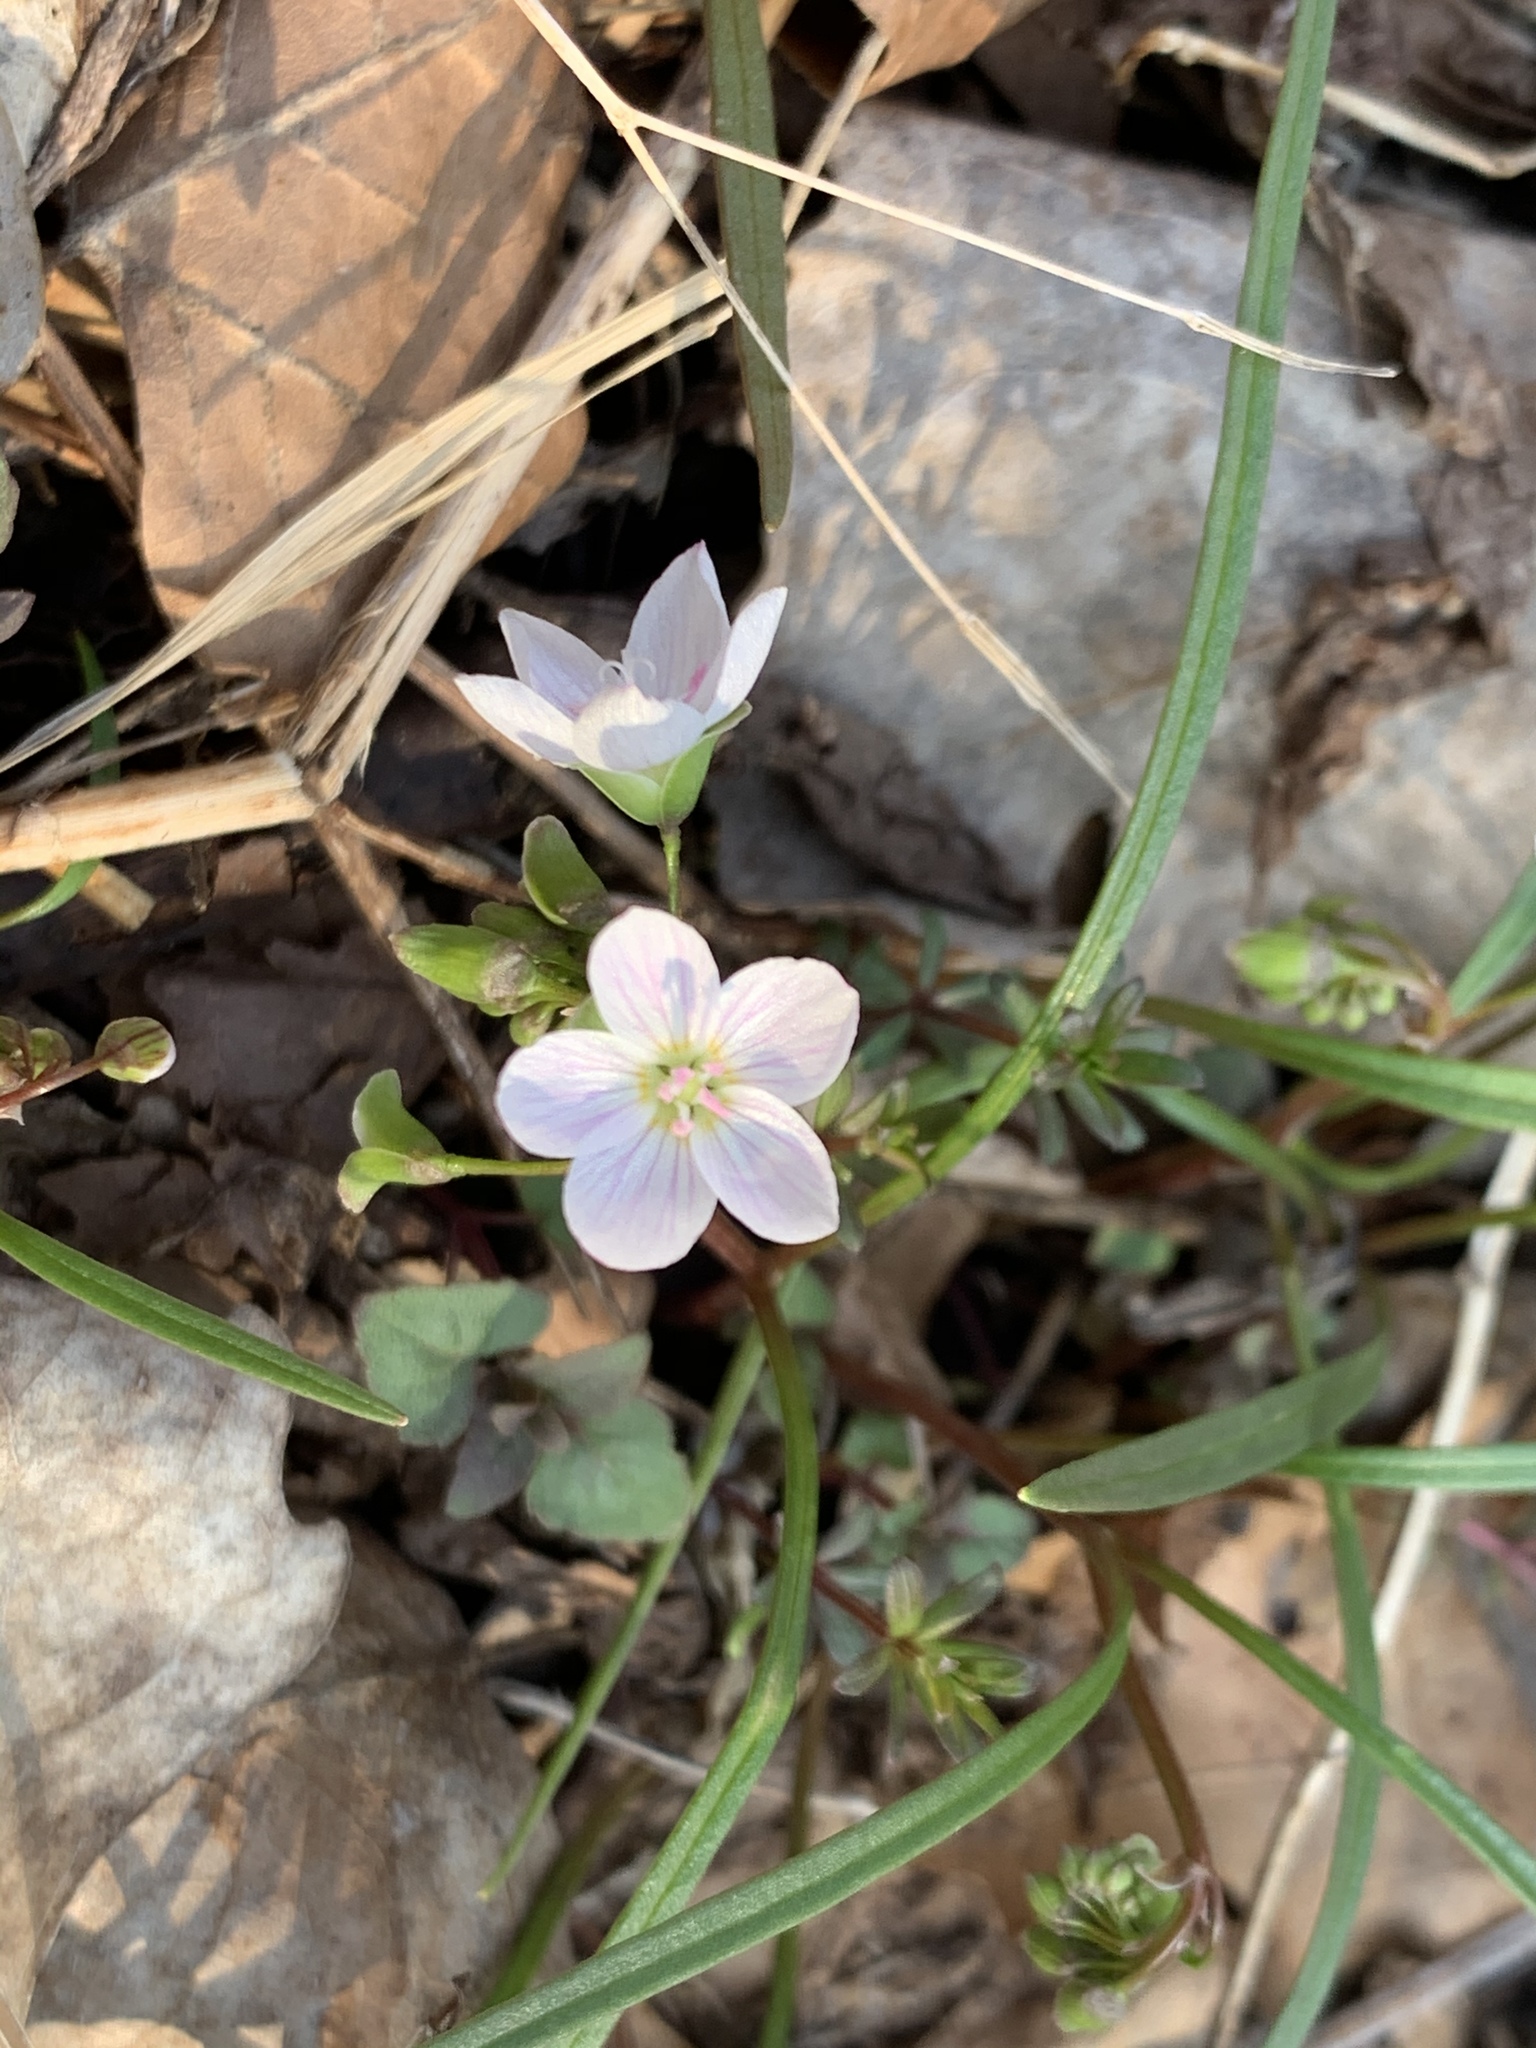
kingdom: Plantae
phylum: Tracheophyta
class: Magnoliopsida
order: Caryophyllales
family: Montiaceae
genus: Claytonia
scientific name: Claytonia virginica
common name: Virginia springbeauty
